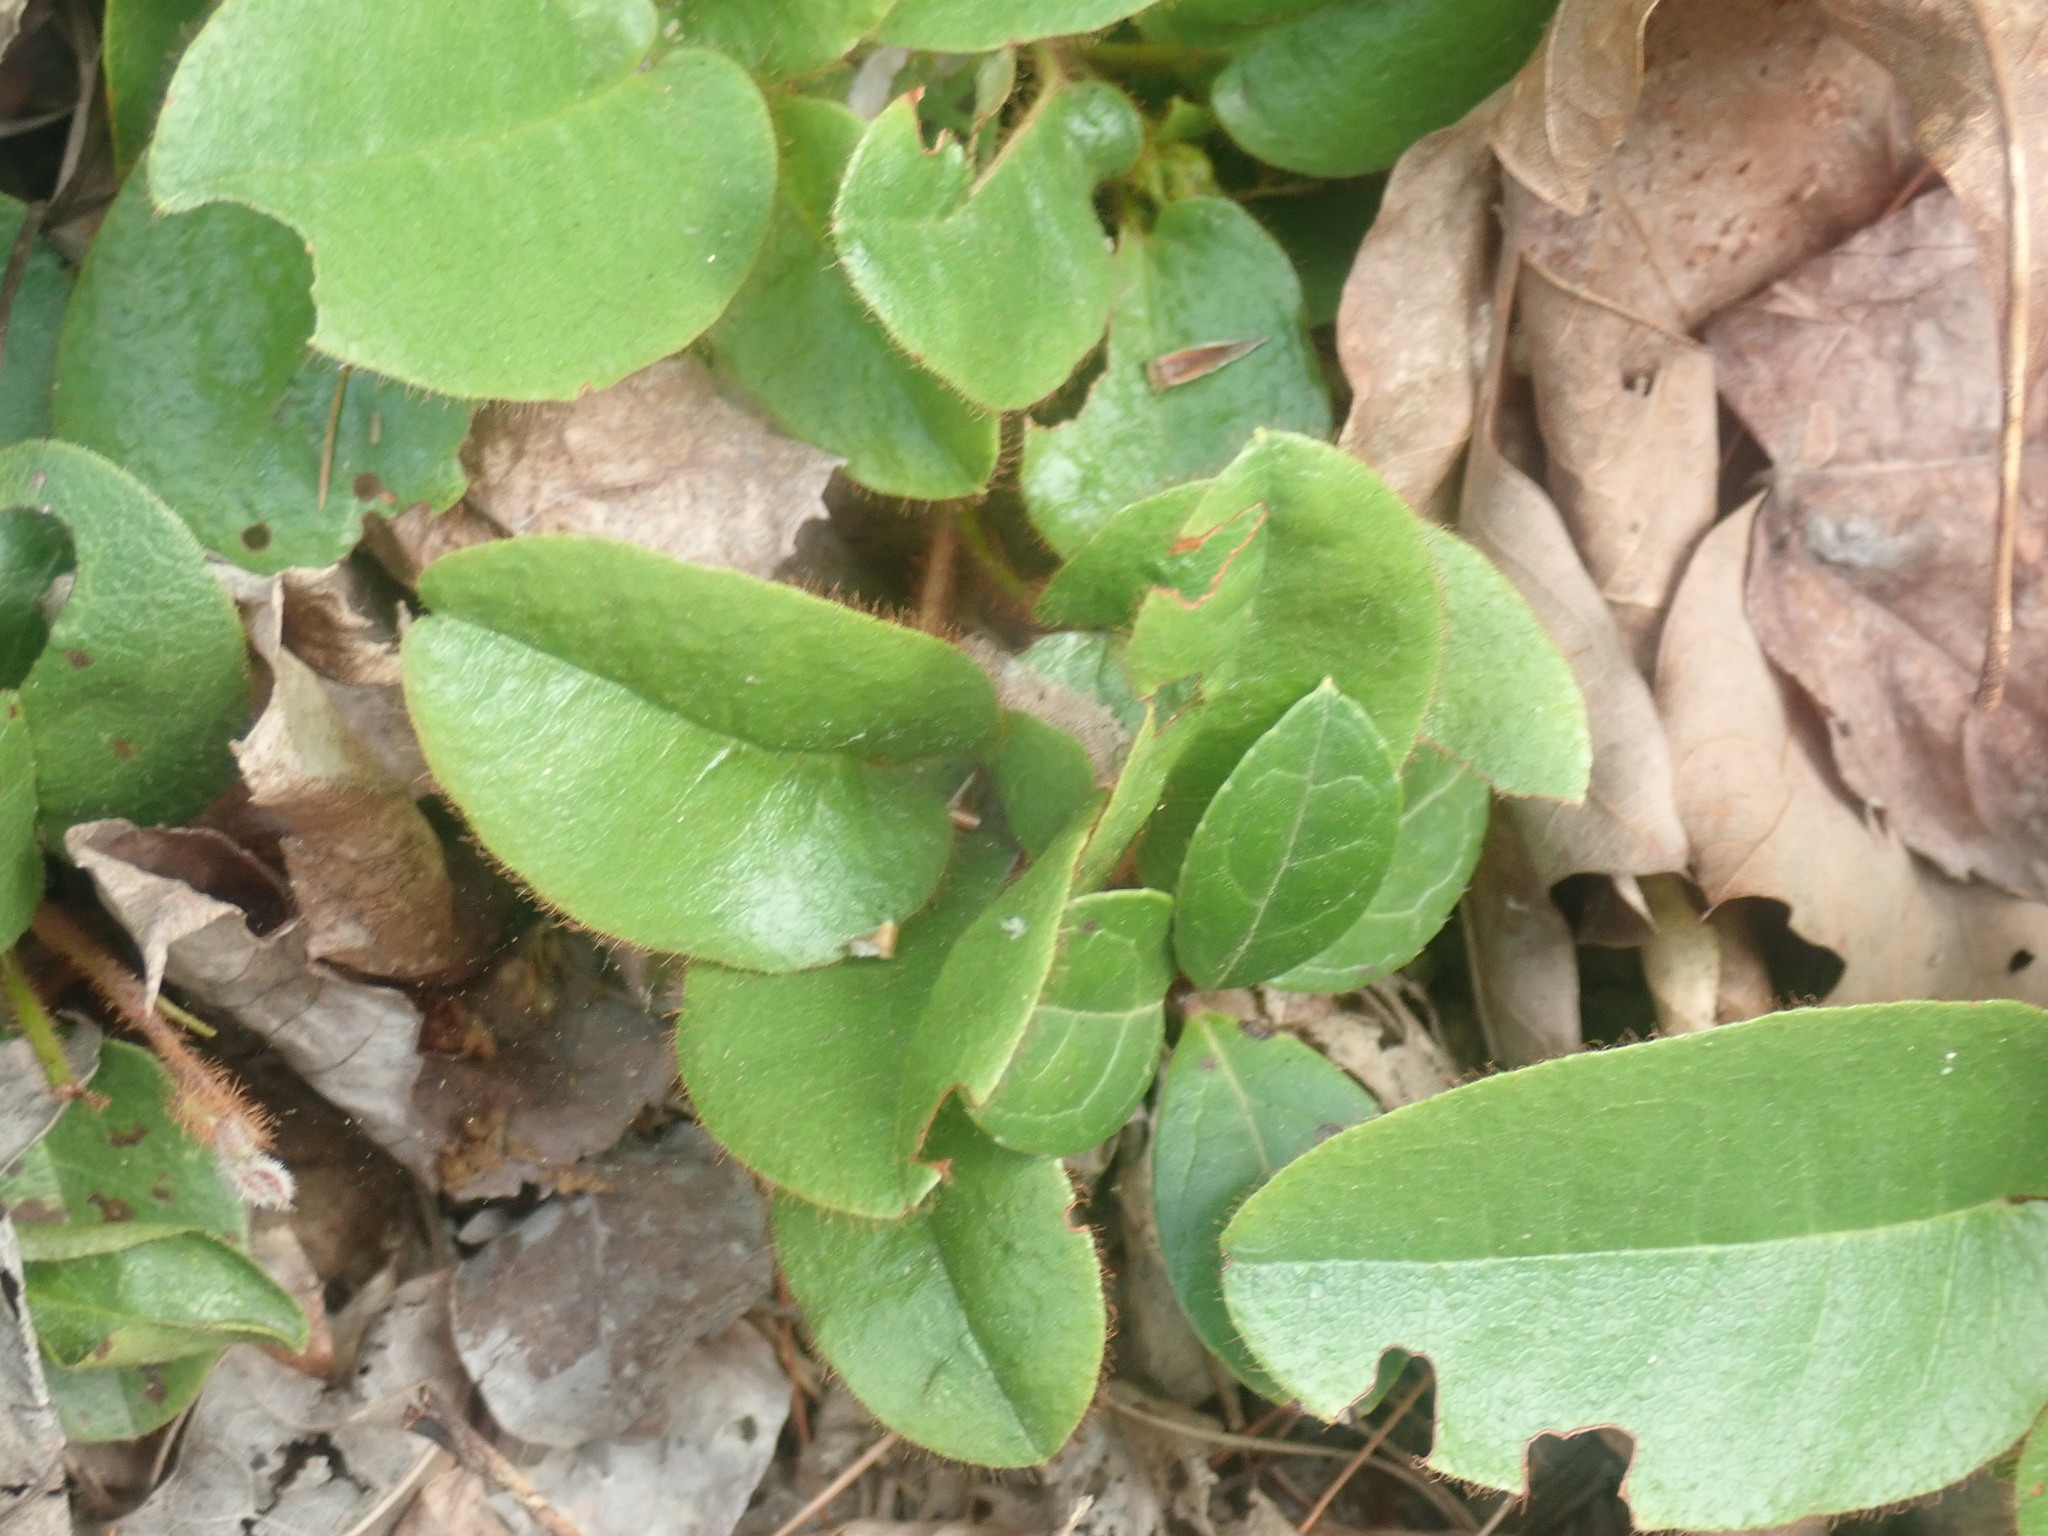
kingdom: Plantae
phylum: Tracheophyta
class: Magnoliopsida
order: Ericales
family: Ericaceae
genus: Epigaea
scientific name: Epigaea repens
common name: Gravelroot
